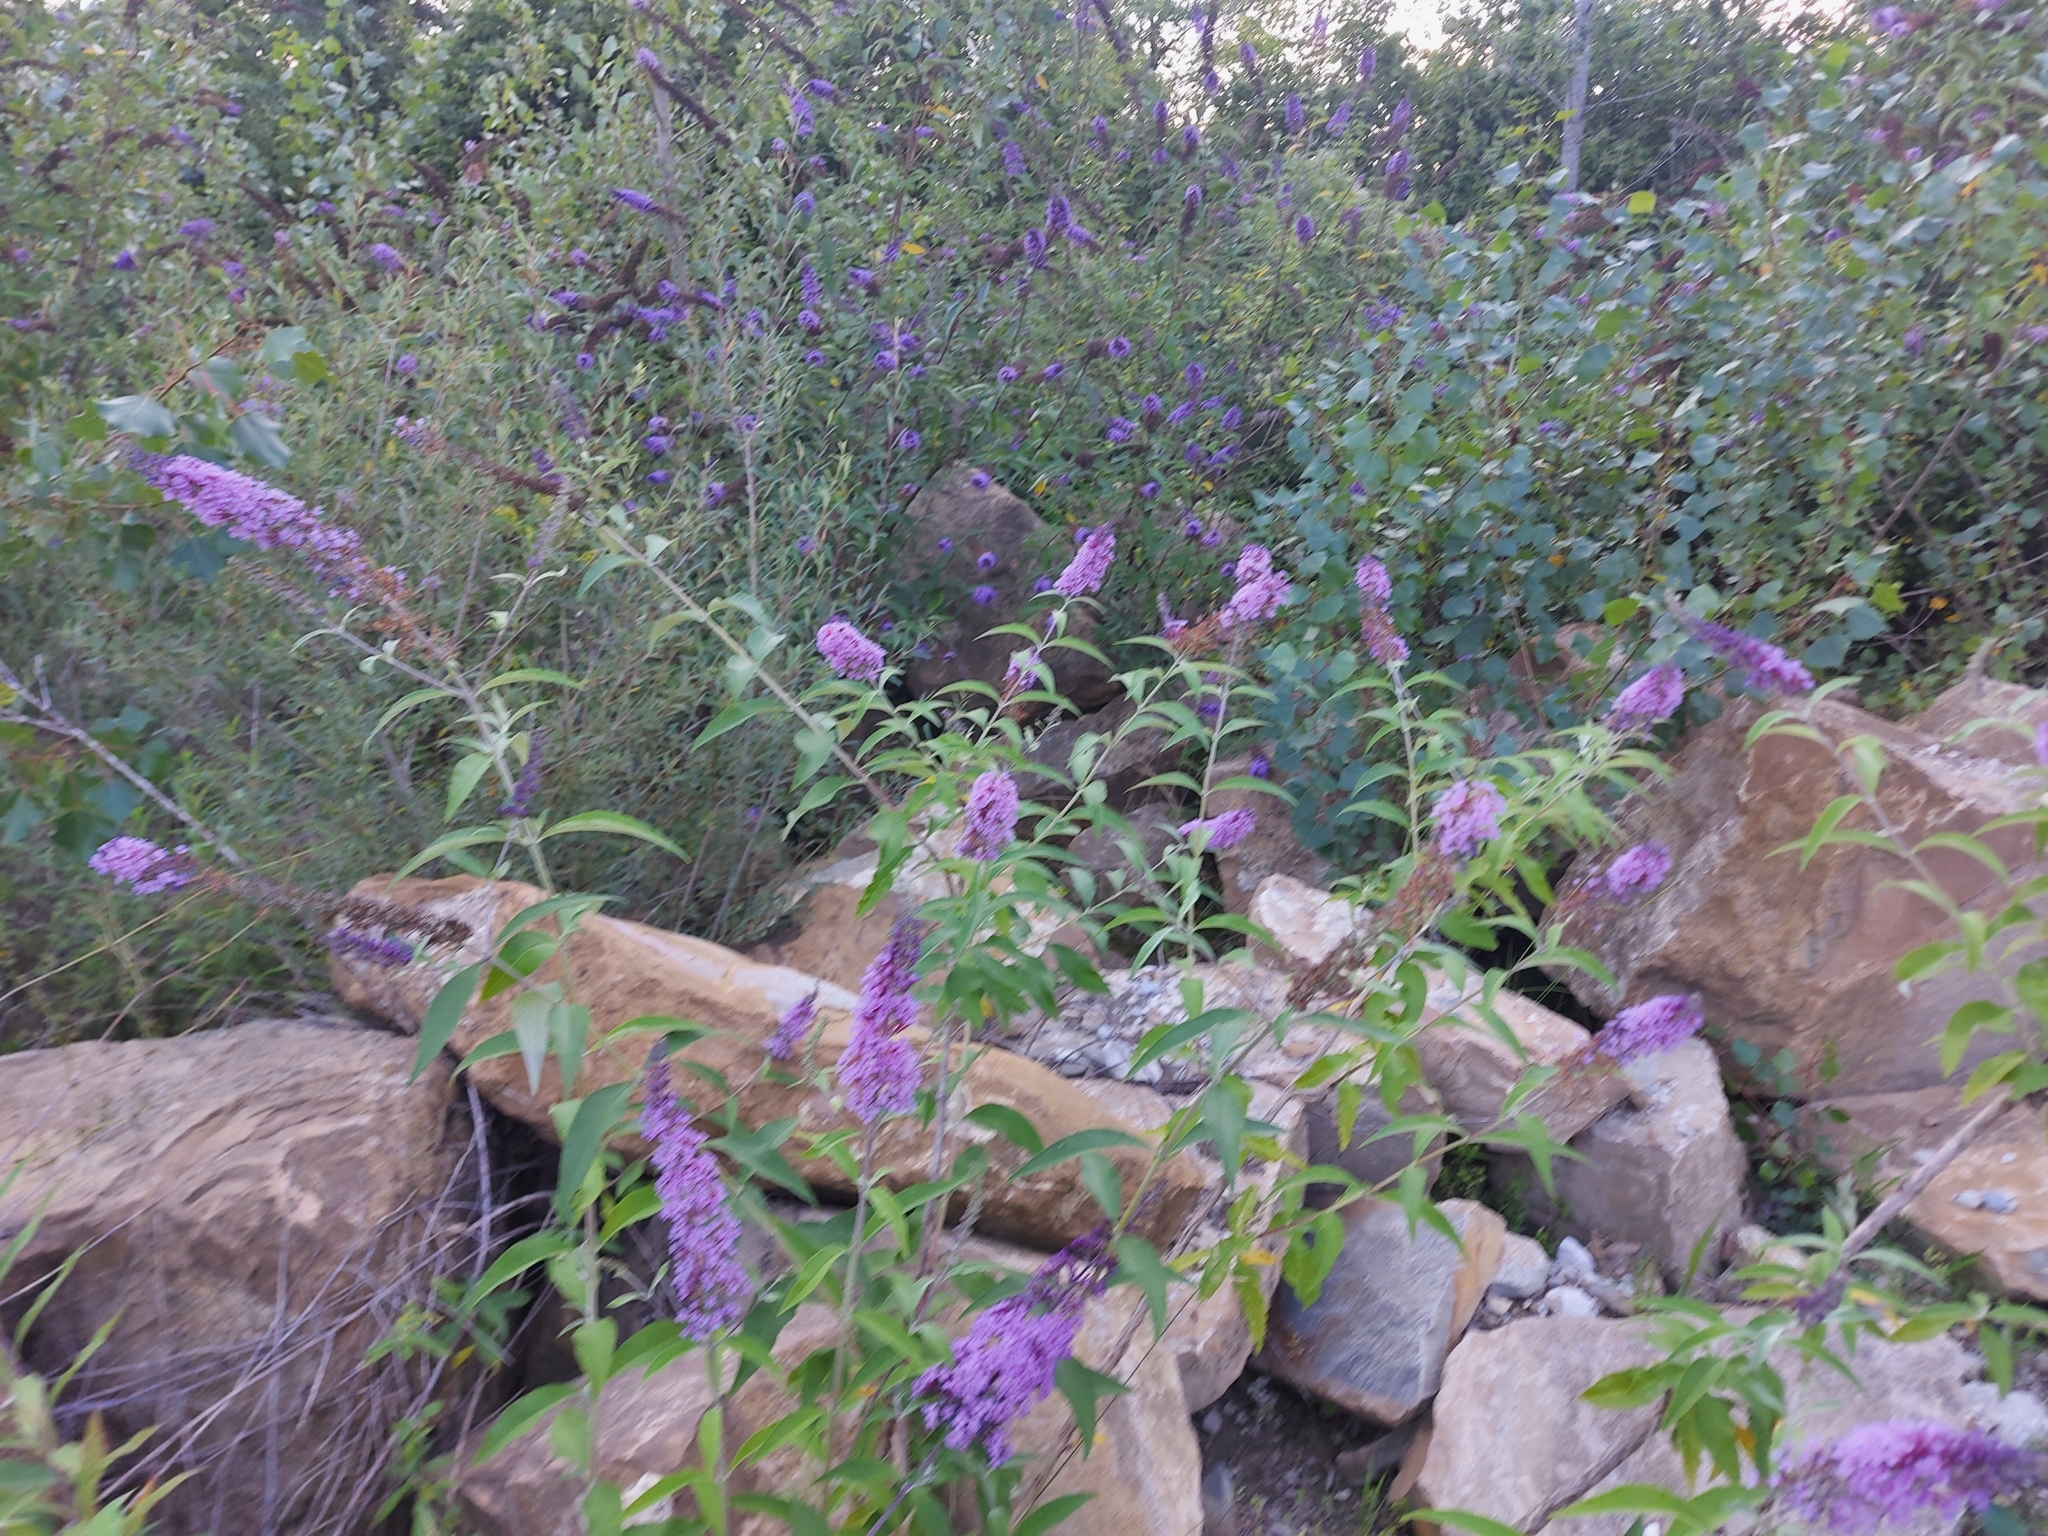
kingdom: Plantae
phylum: Tracheophyta
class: Magnoliopsida
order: Lamiales
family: Scrophulariaceae
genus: Buddleja
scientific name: Buddleja davidii
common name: Butterfly-bush
